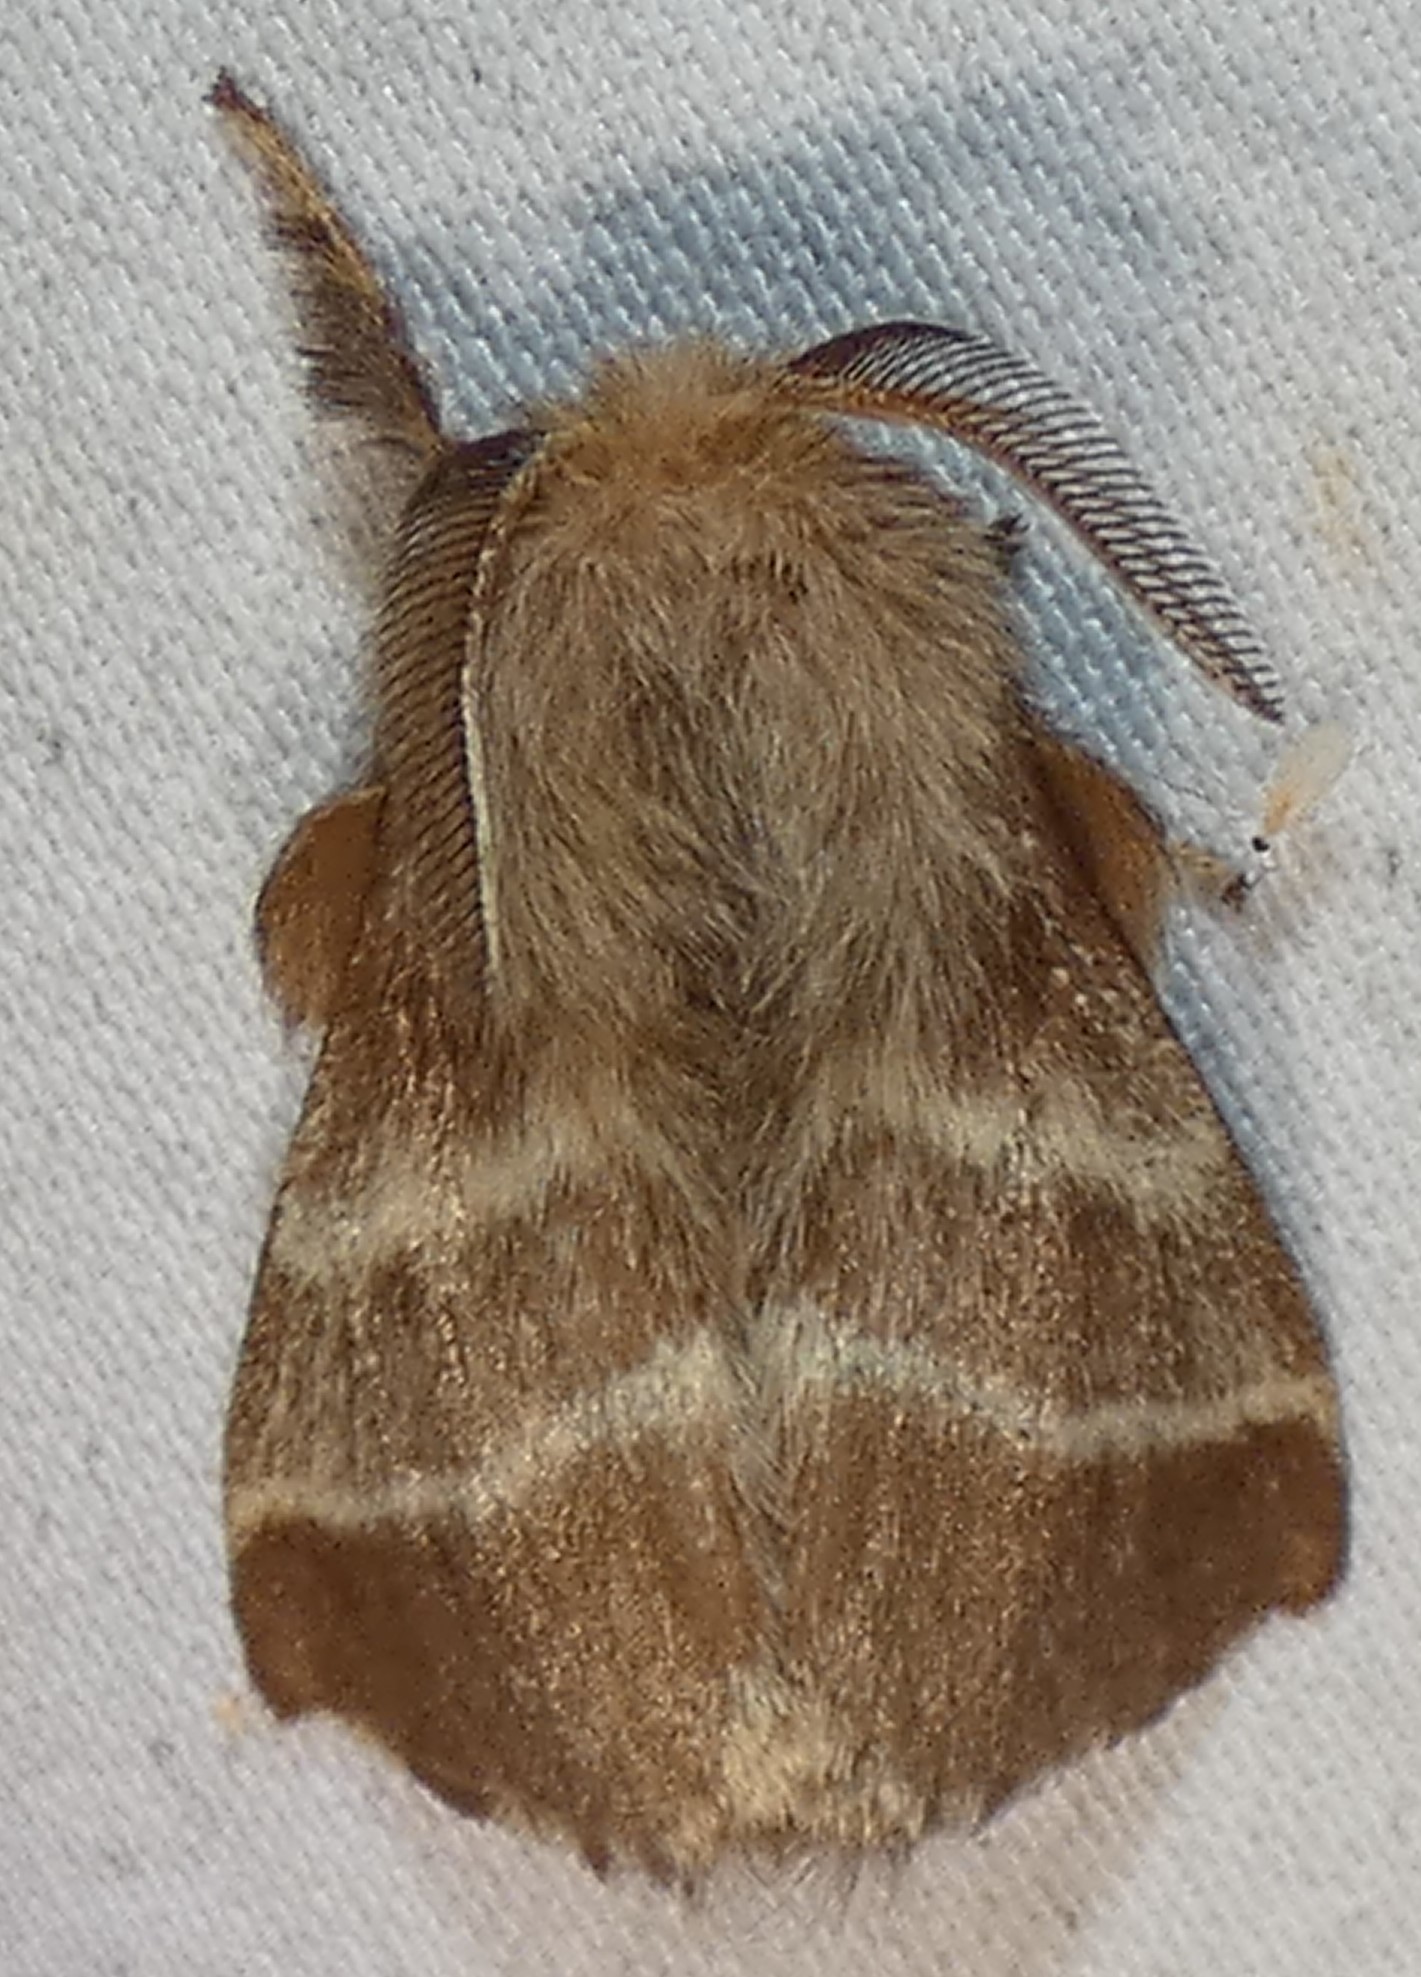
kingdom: Animalia
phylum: Arthropoda
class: Insecta
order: Lepidoptera
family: Lasiocampidae
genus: Malacosoma
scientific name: Malacosoma americana
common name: Eastern tent caterpillar moth
